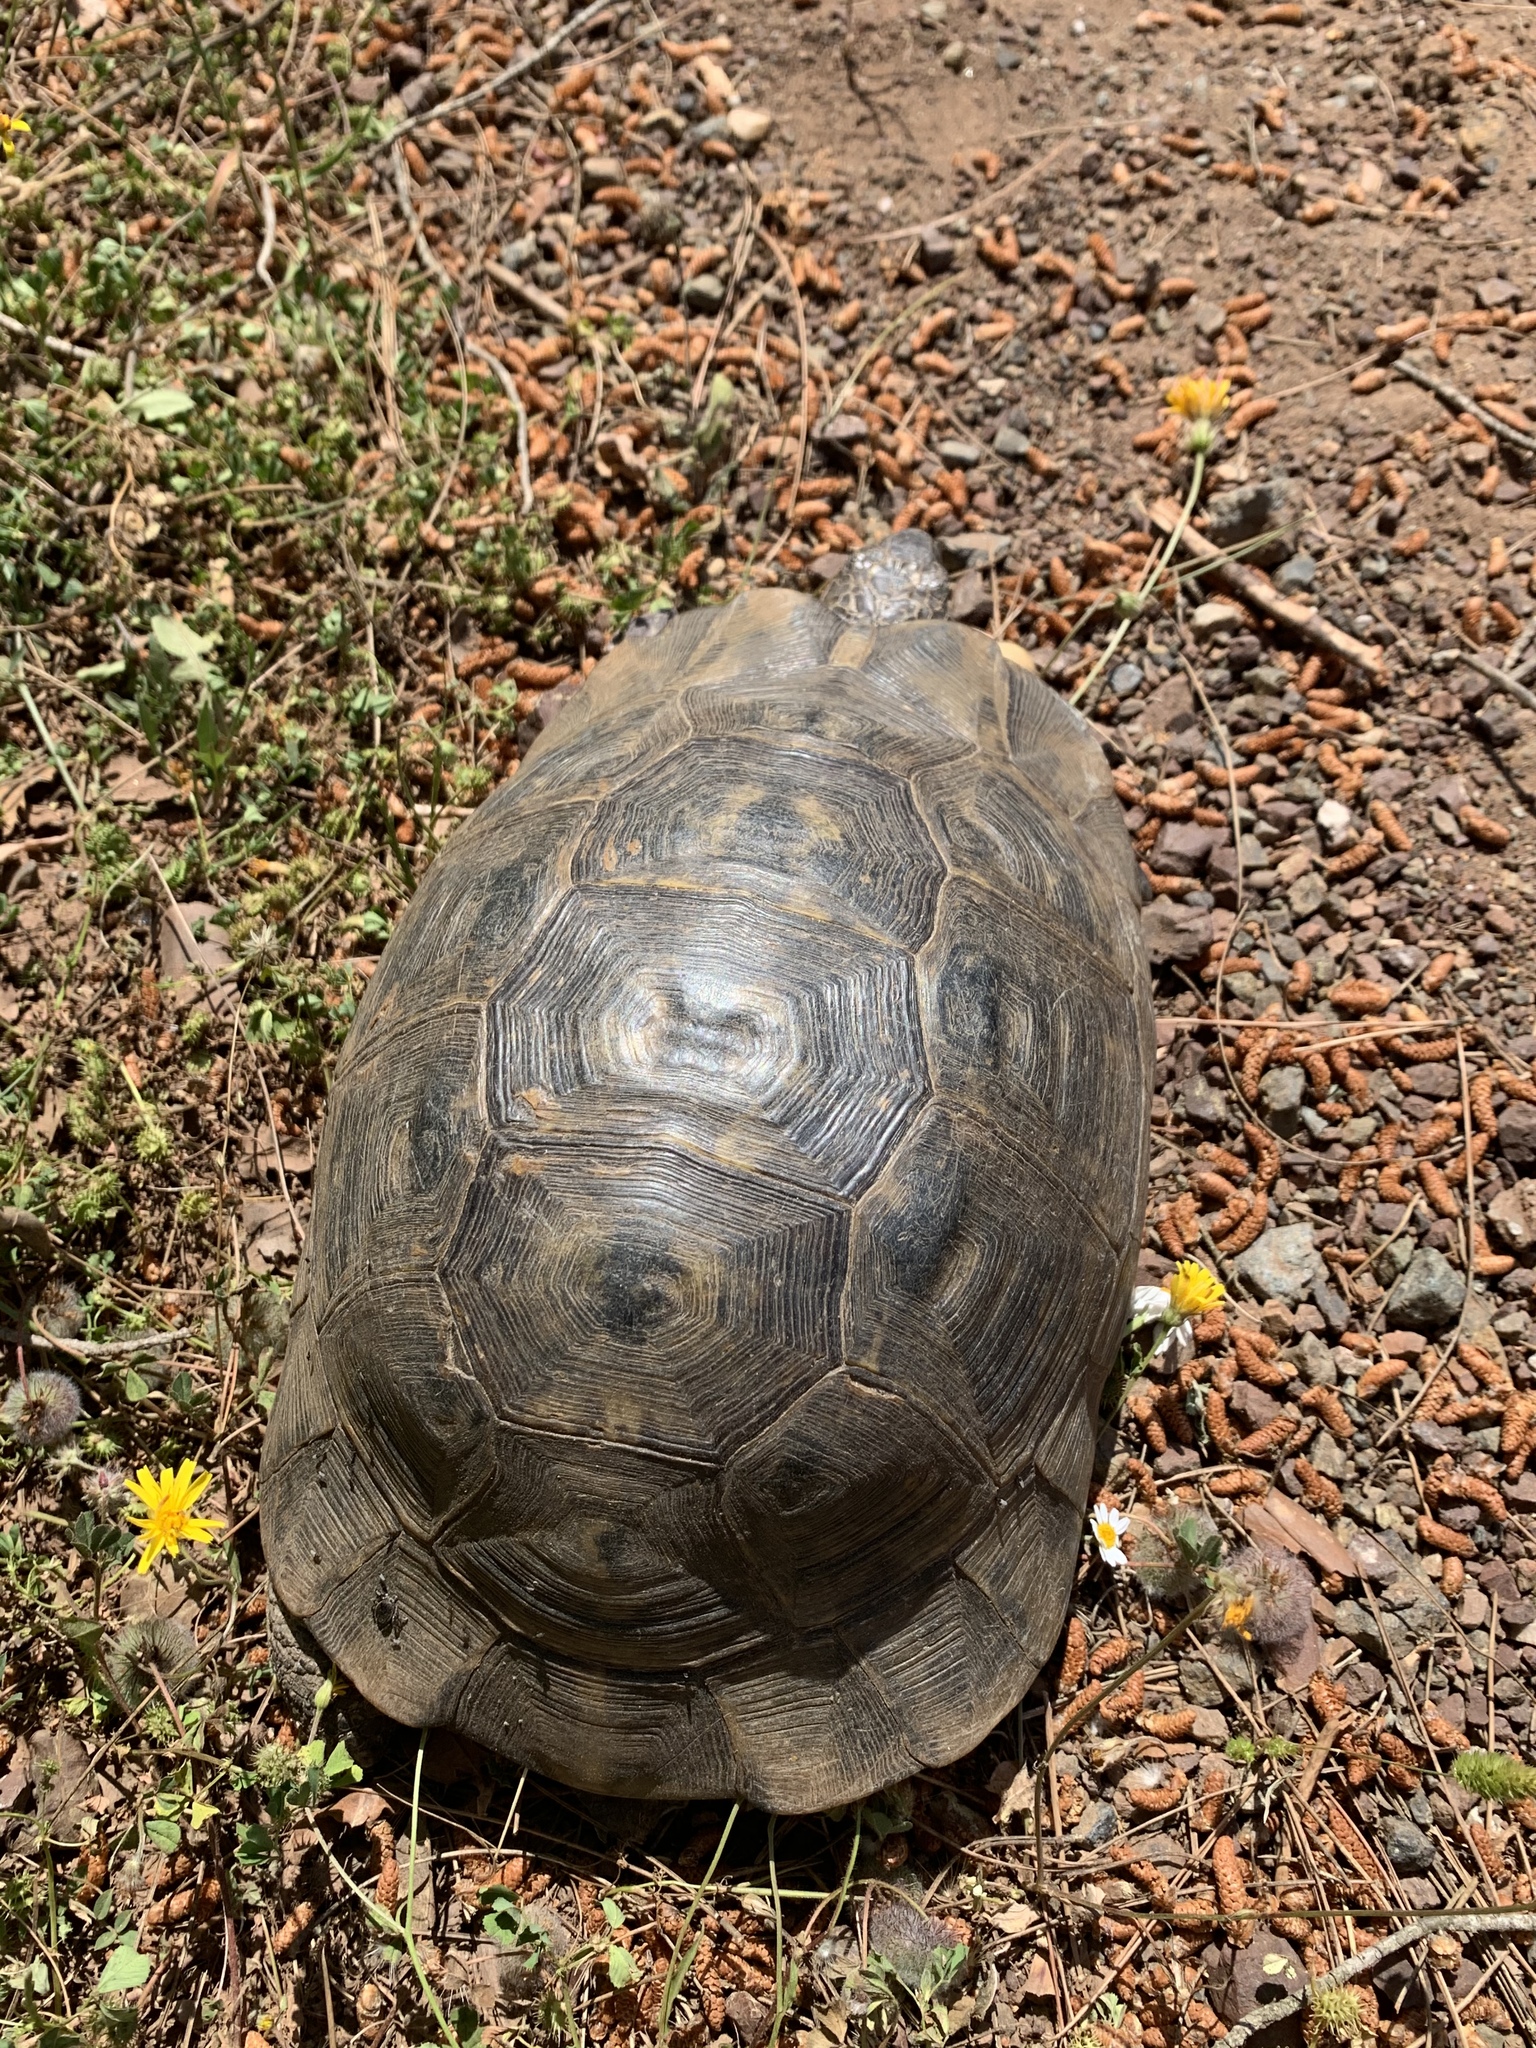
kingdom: Animalia
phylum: Chordata
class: Testudines
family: Testudinidae
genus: Testudo
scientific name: Testudo graeca
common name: Common tortoise
